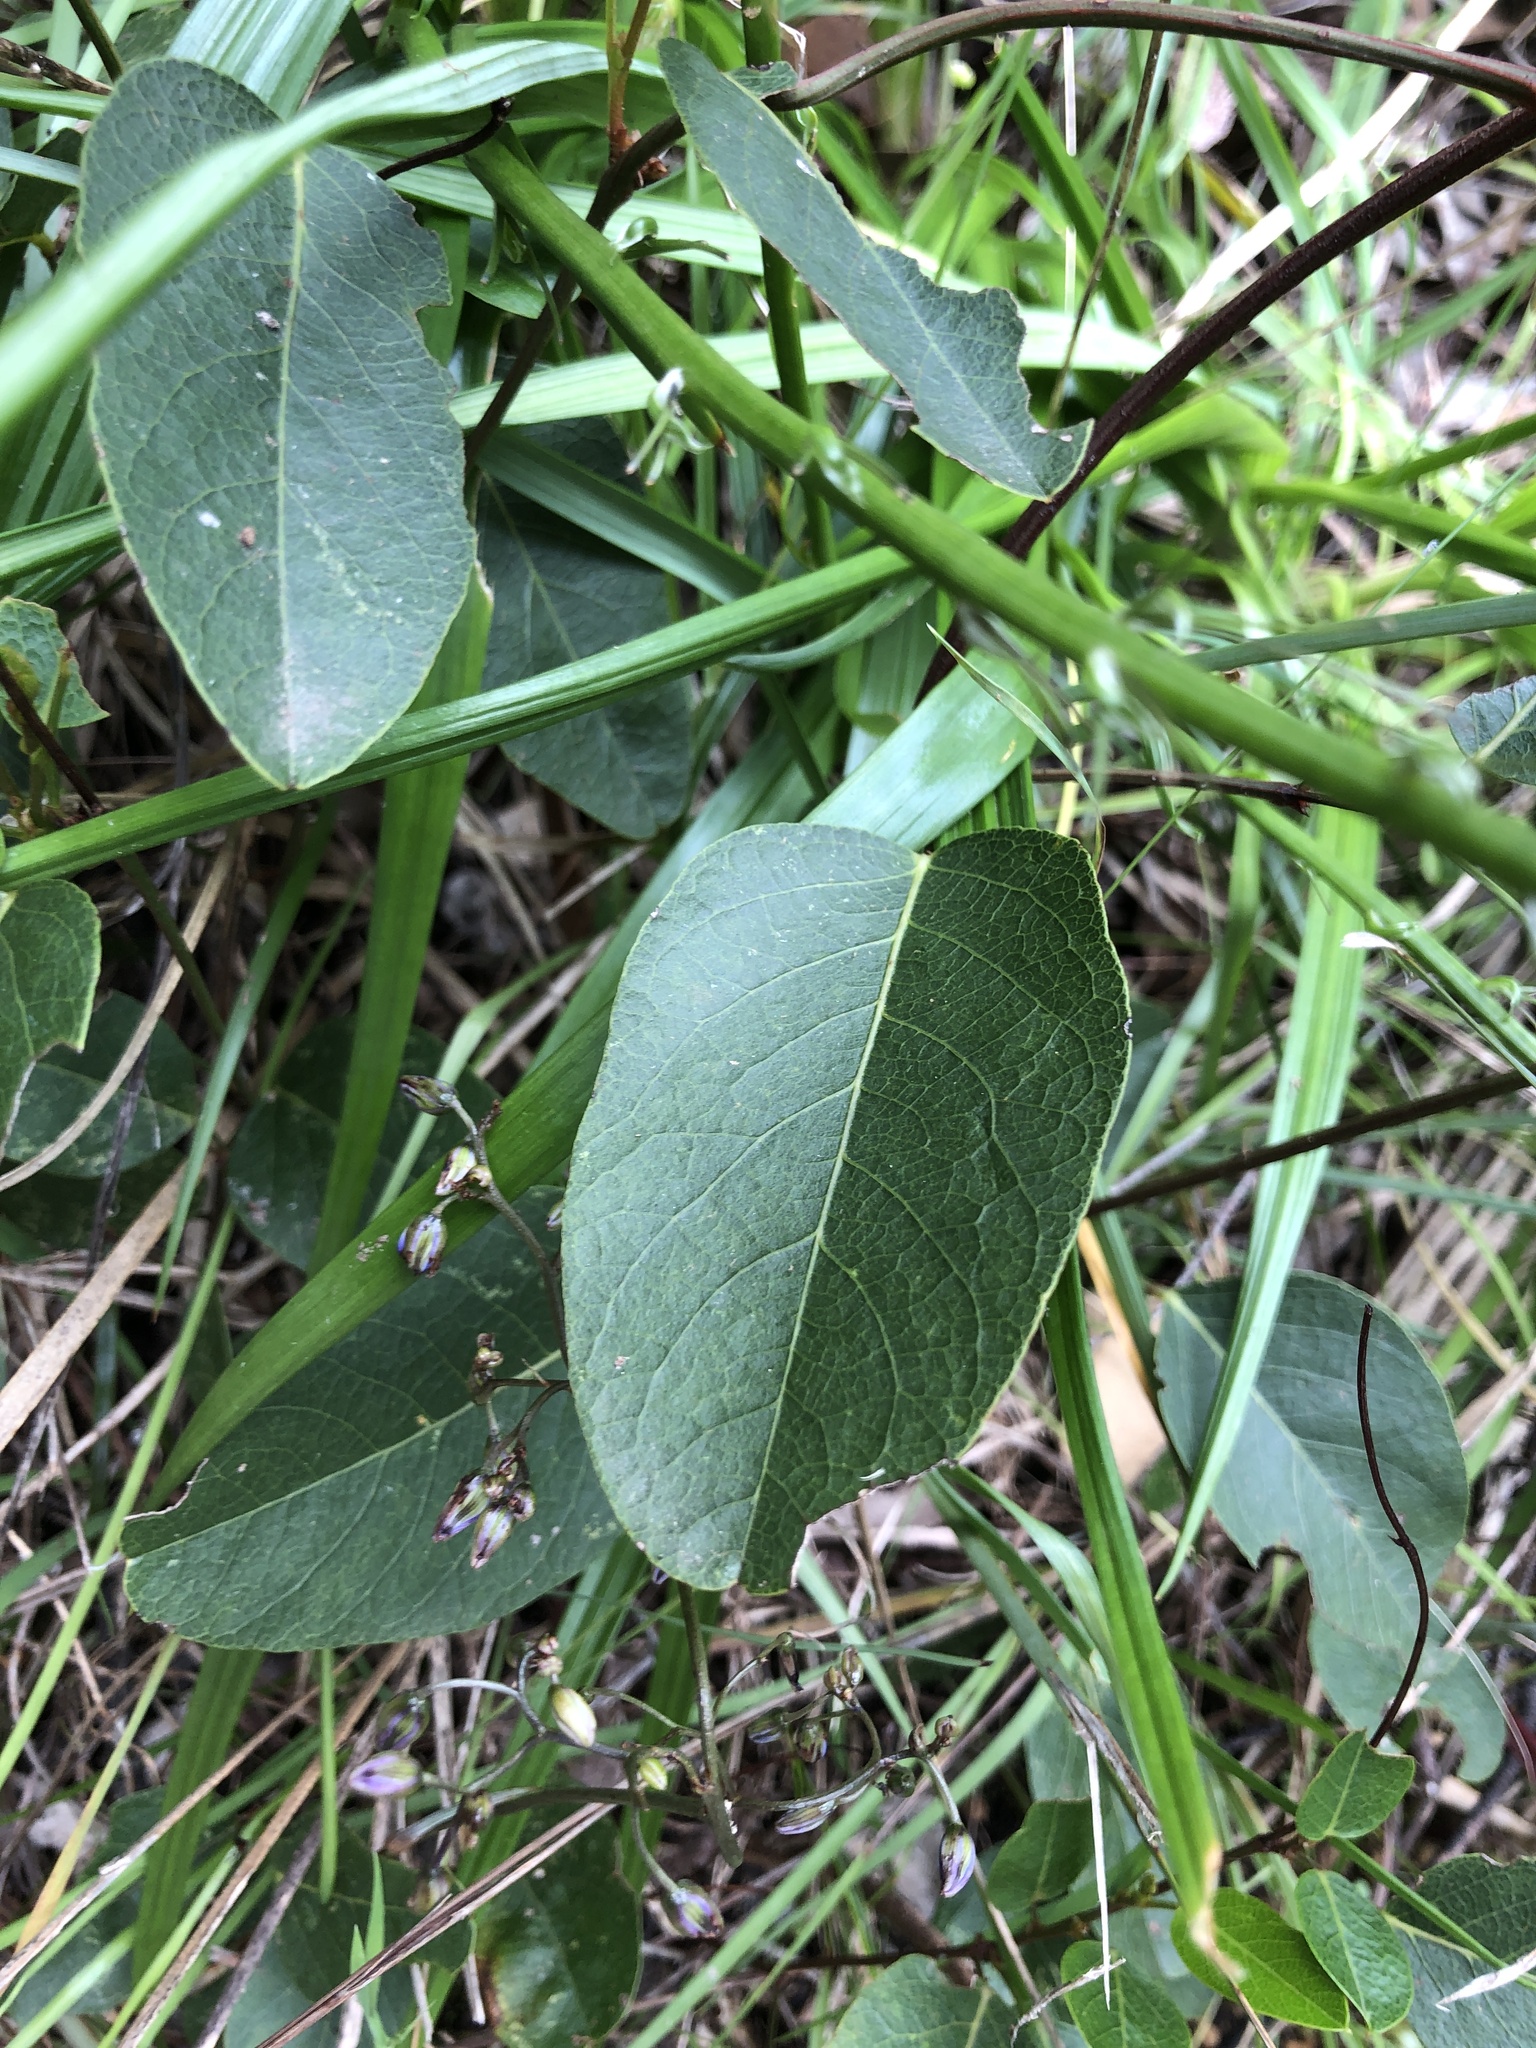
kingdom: Plantae
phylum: Tracheophyta
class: Magnoliopsida
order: Fabales
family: Fabaceae
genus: Hardenbergia
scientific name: Hardenbergia violacea
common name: Coral-pea
